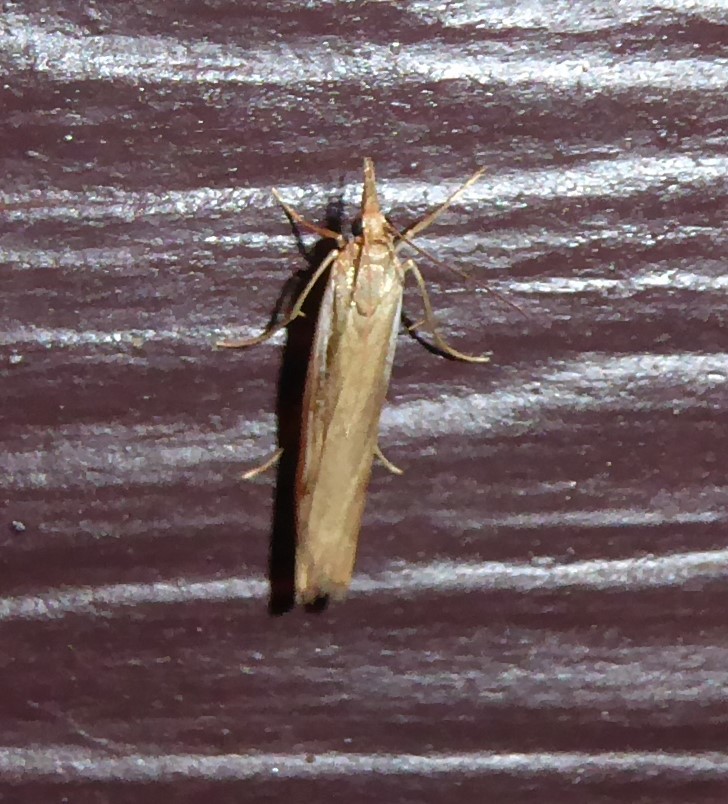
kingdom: Animalia
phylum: Arthropoda
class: Insecta
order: Lepidoptera
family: Crambidae
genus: Orocrambus
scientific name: Orocrambus flexuosellus
